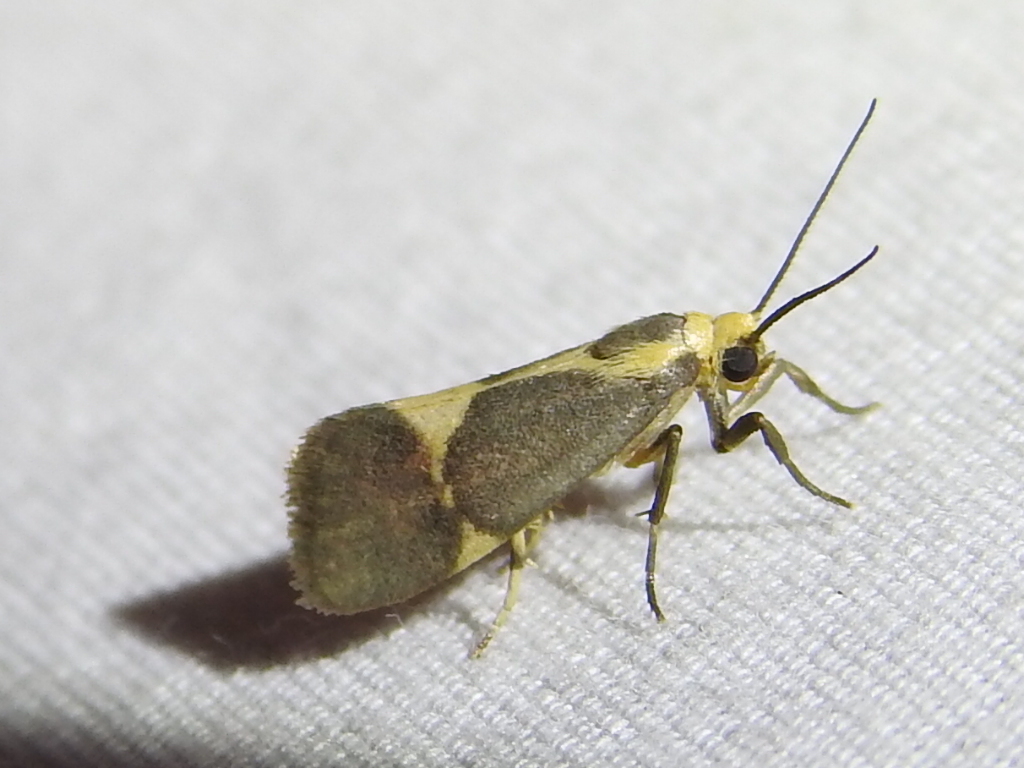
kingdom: Animalia
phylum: Arthropoda
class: Insecta
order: Lepidoptera
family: Erebidae
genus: Cisthene
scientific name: Cisthene tenuifascia
